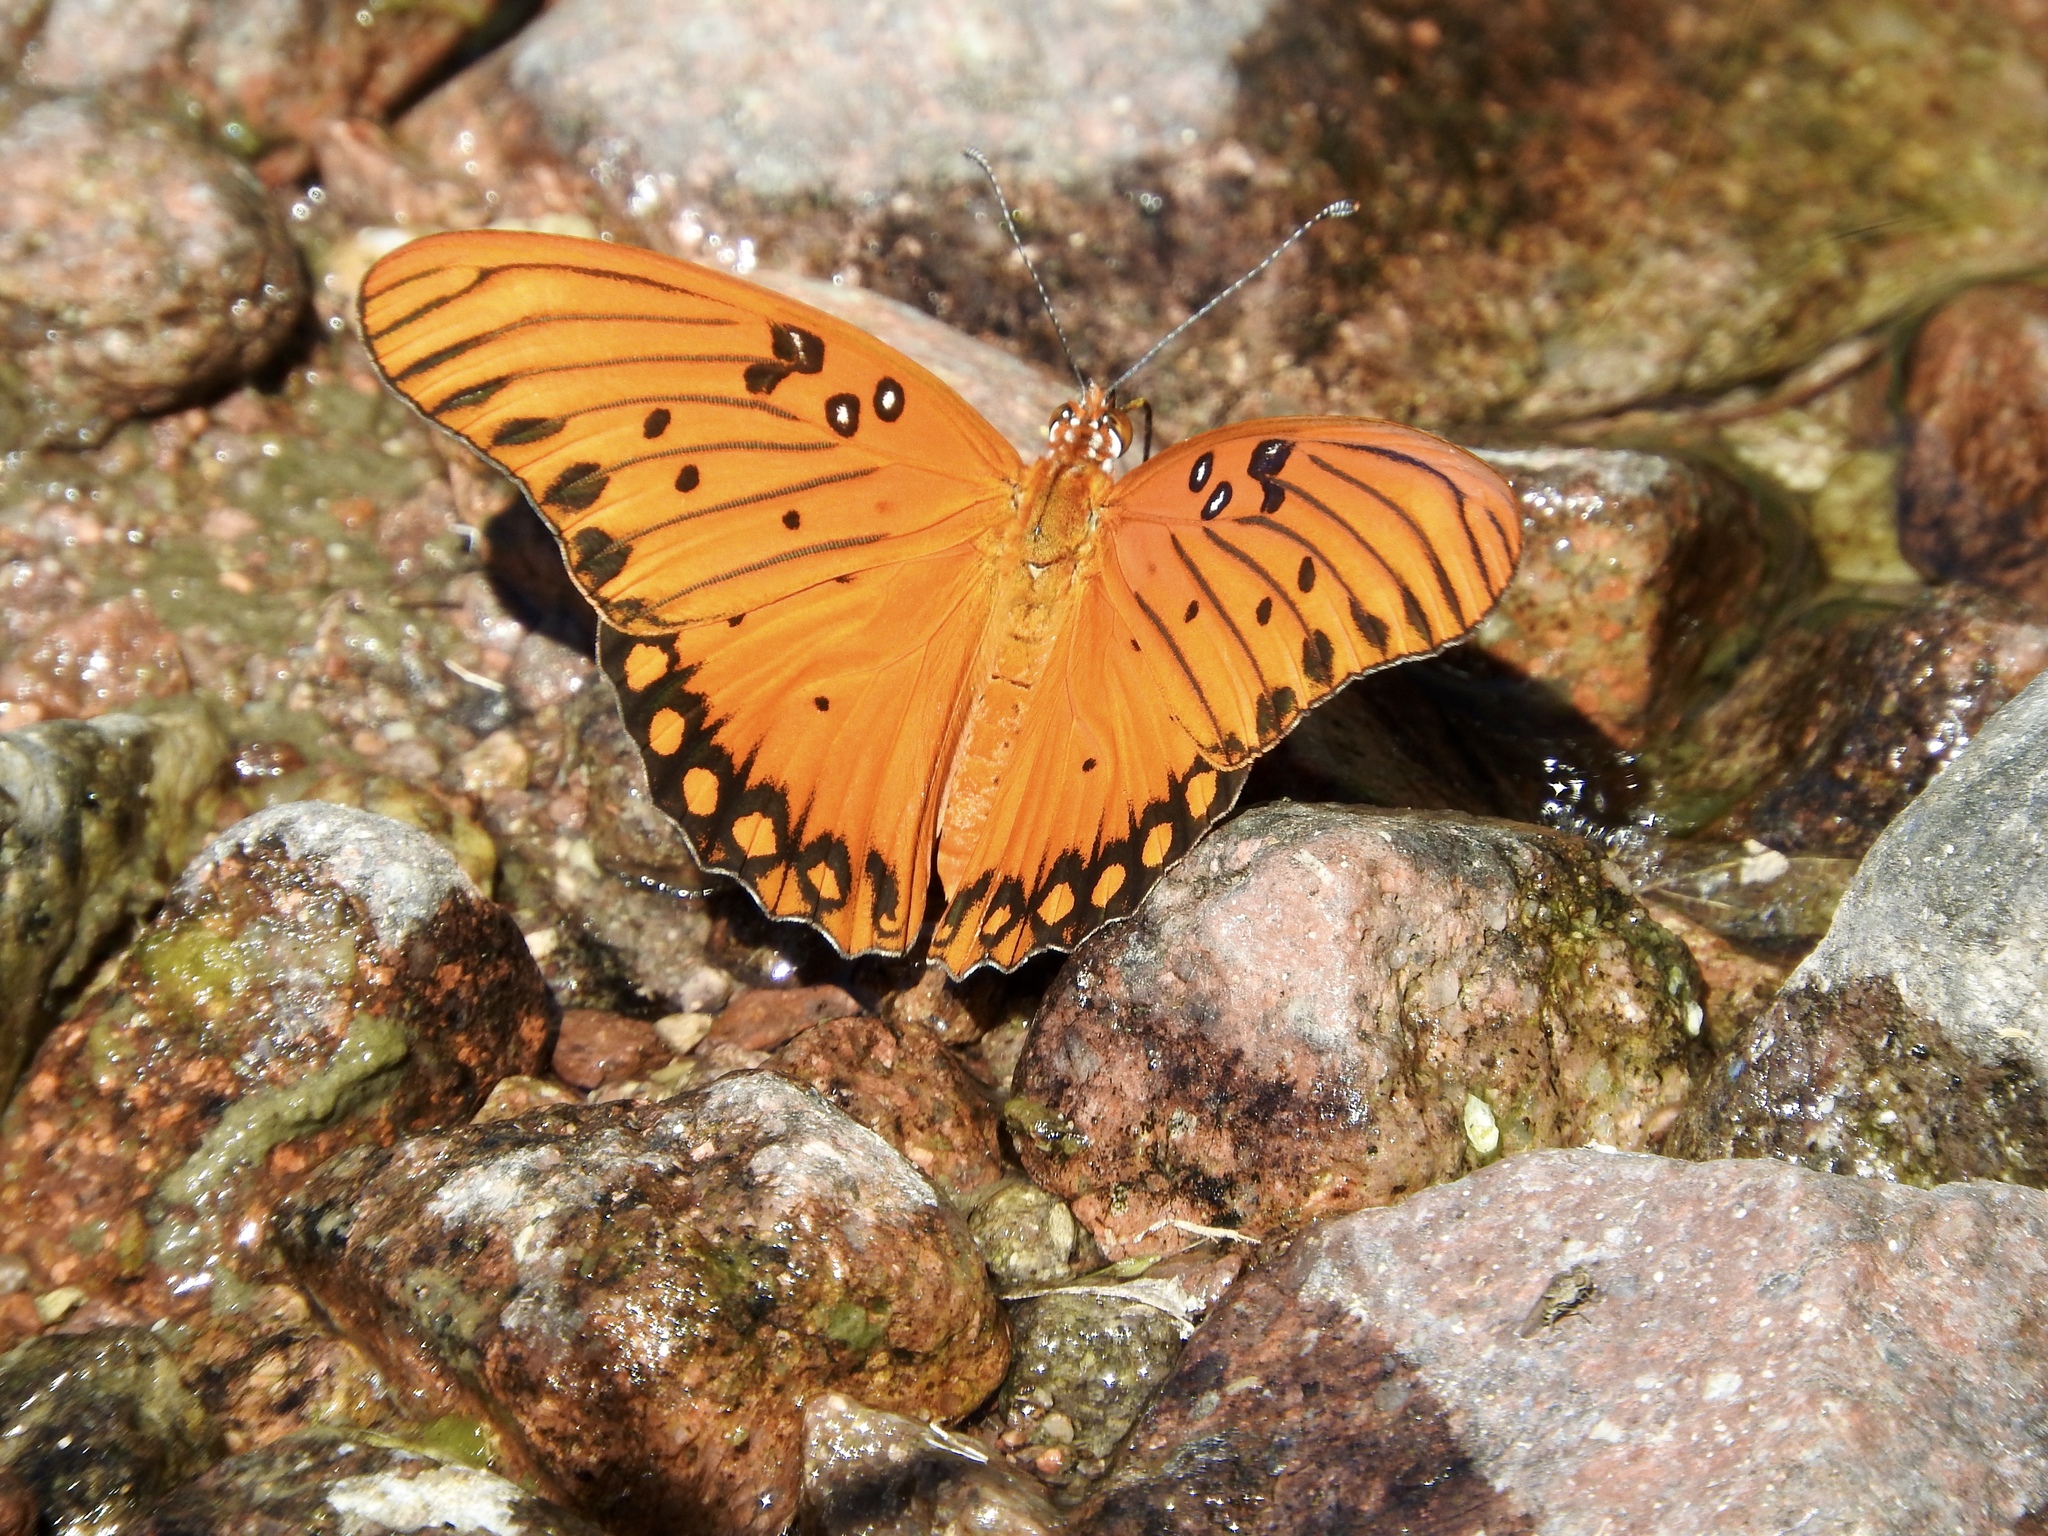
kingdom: Animalia
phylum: Arthropoda
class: Insecta
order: Lepidoptera
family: Nymphalidae
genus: Dione
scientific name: Dione vanillae
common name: Gulf fritillary
